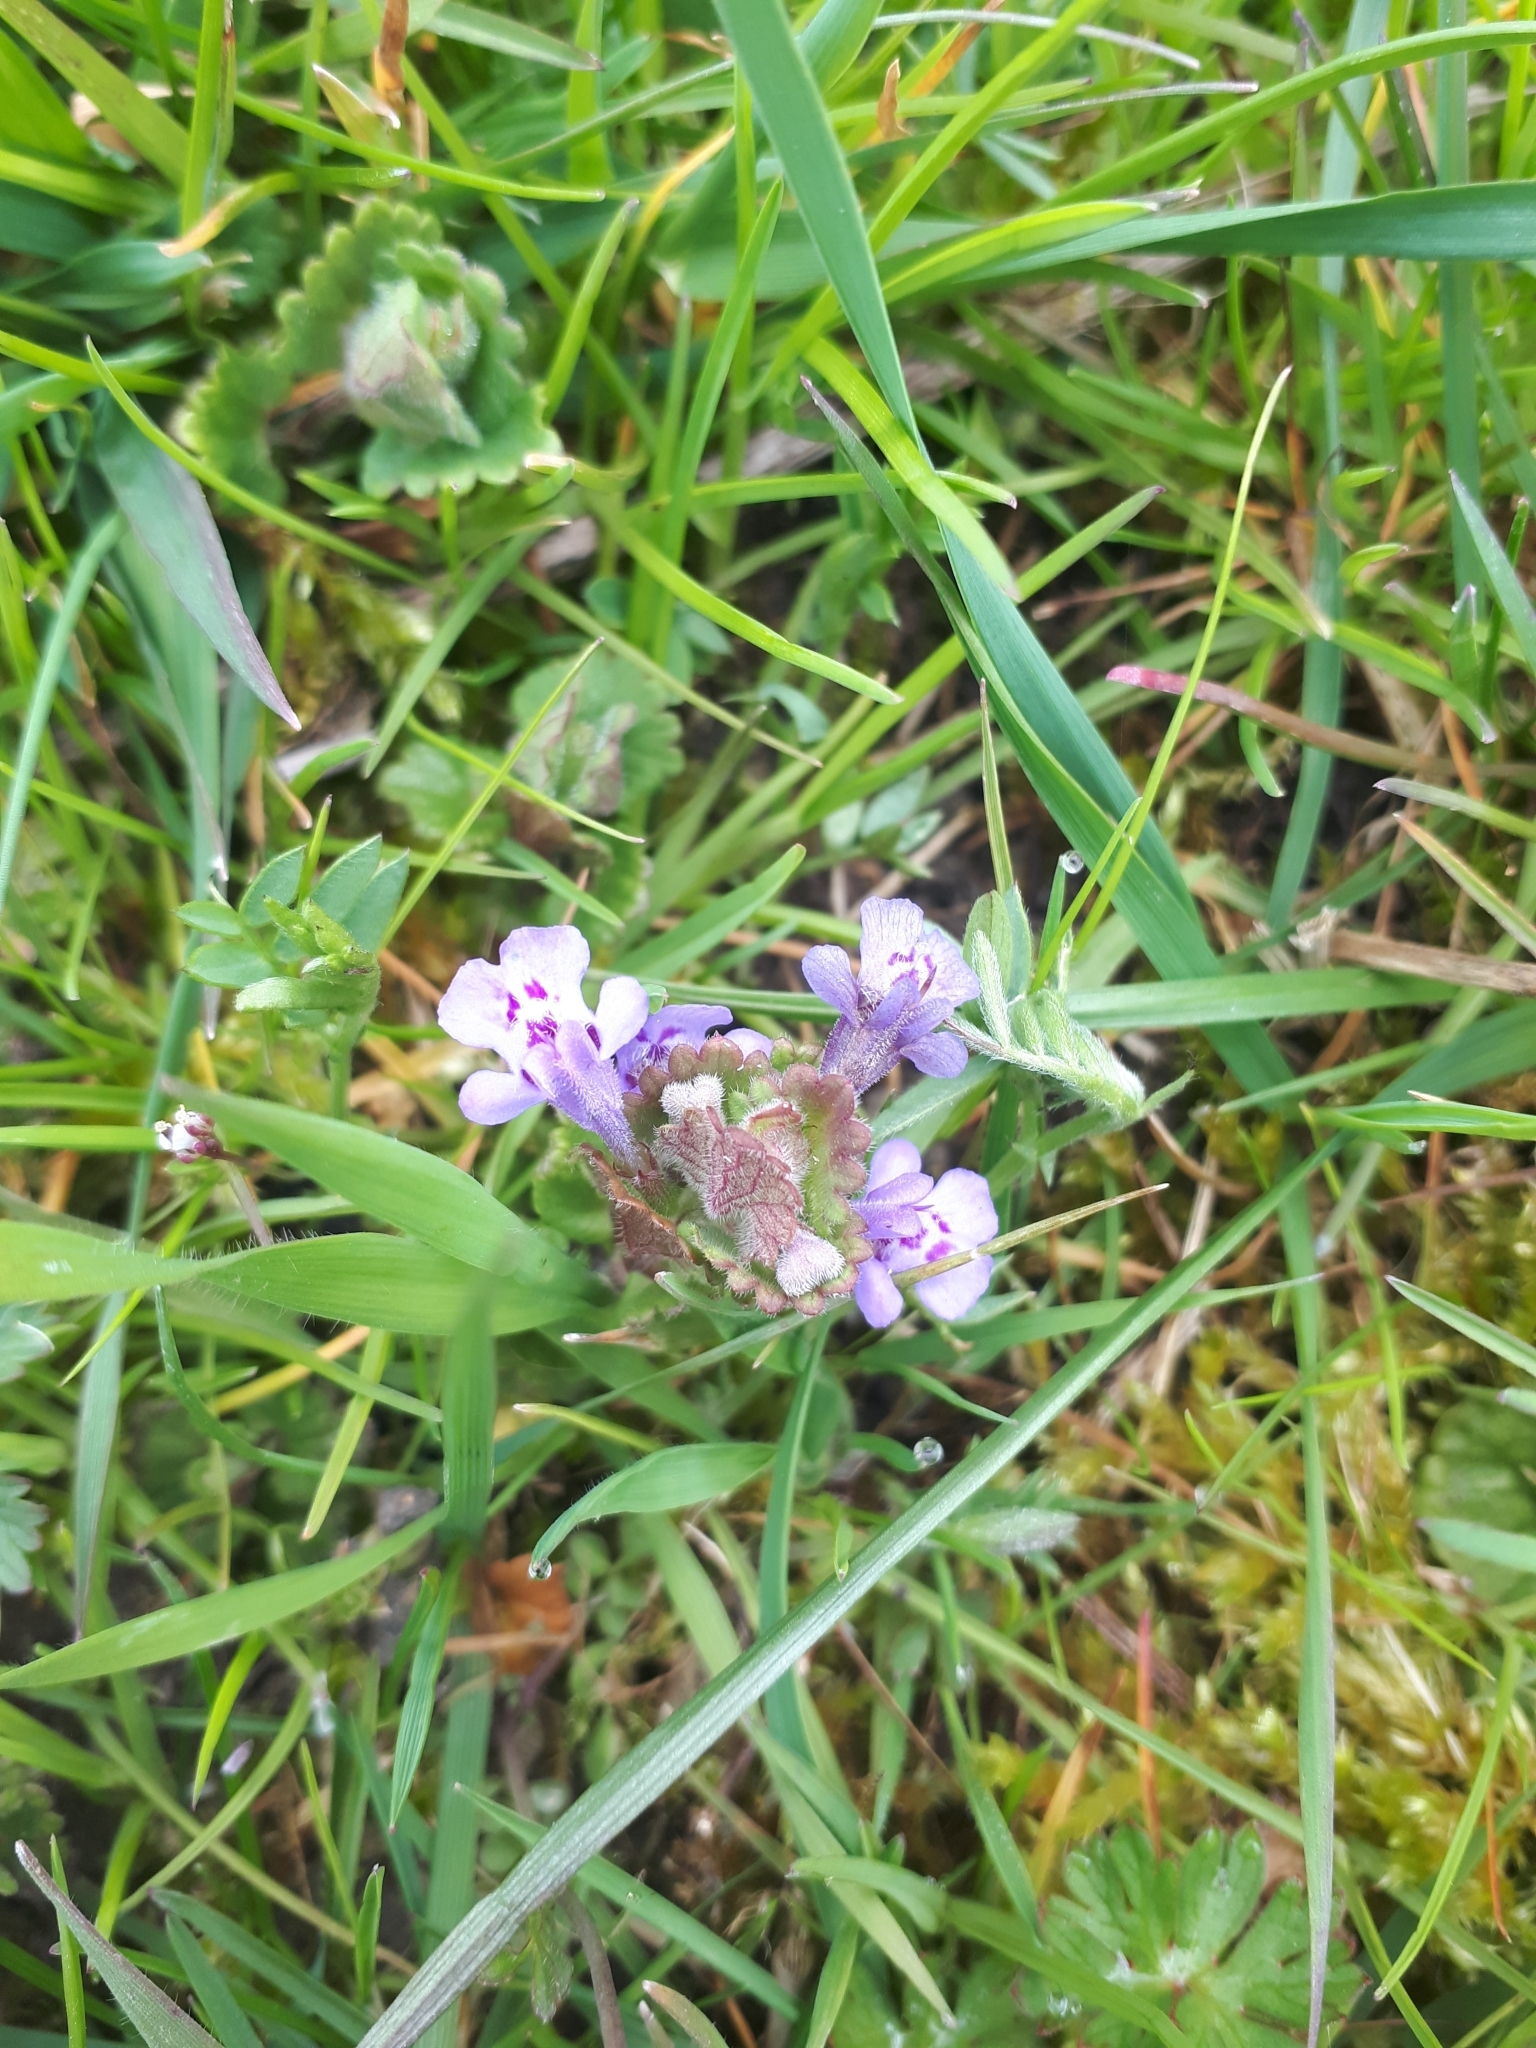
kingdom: Plantae
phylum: Tracheophyta
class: Magnoliopsida
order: Lamiales
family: Lamiaceae
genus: Glechoma
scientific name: Glechoma hederacea
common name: Ground ivy
